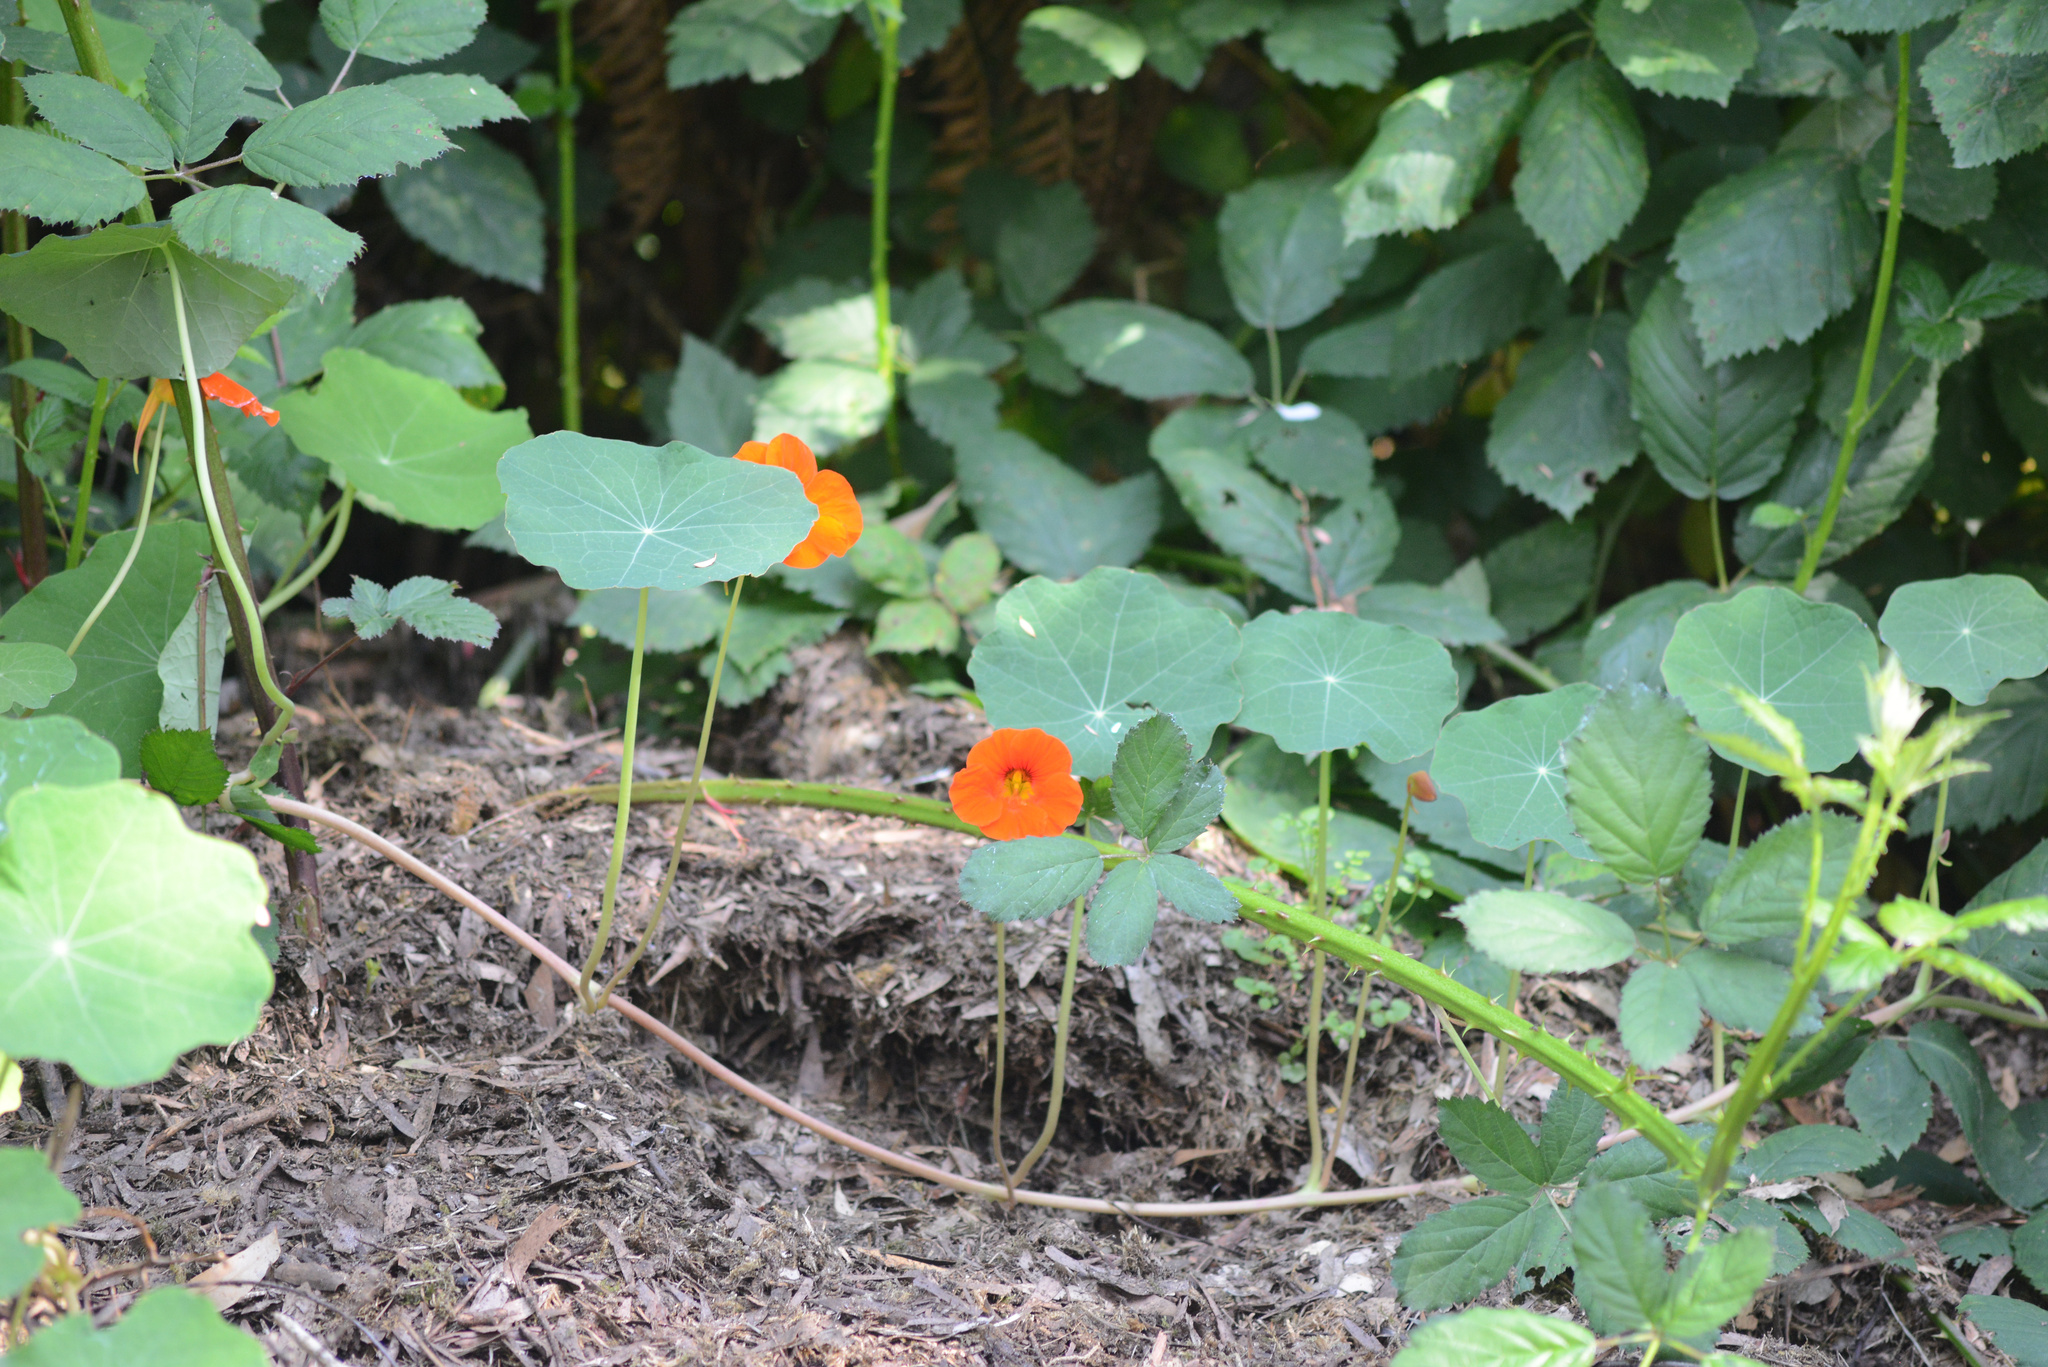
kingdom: Plantae
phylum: Tracheophyta
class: Magnoliopsida
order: Brassicales
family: Tropaeolaceae
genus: Tropaeolum
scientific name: Tropaeolum majus
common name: Nasturtium
